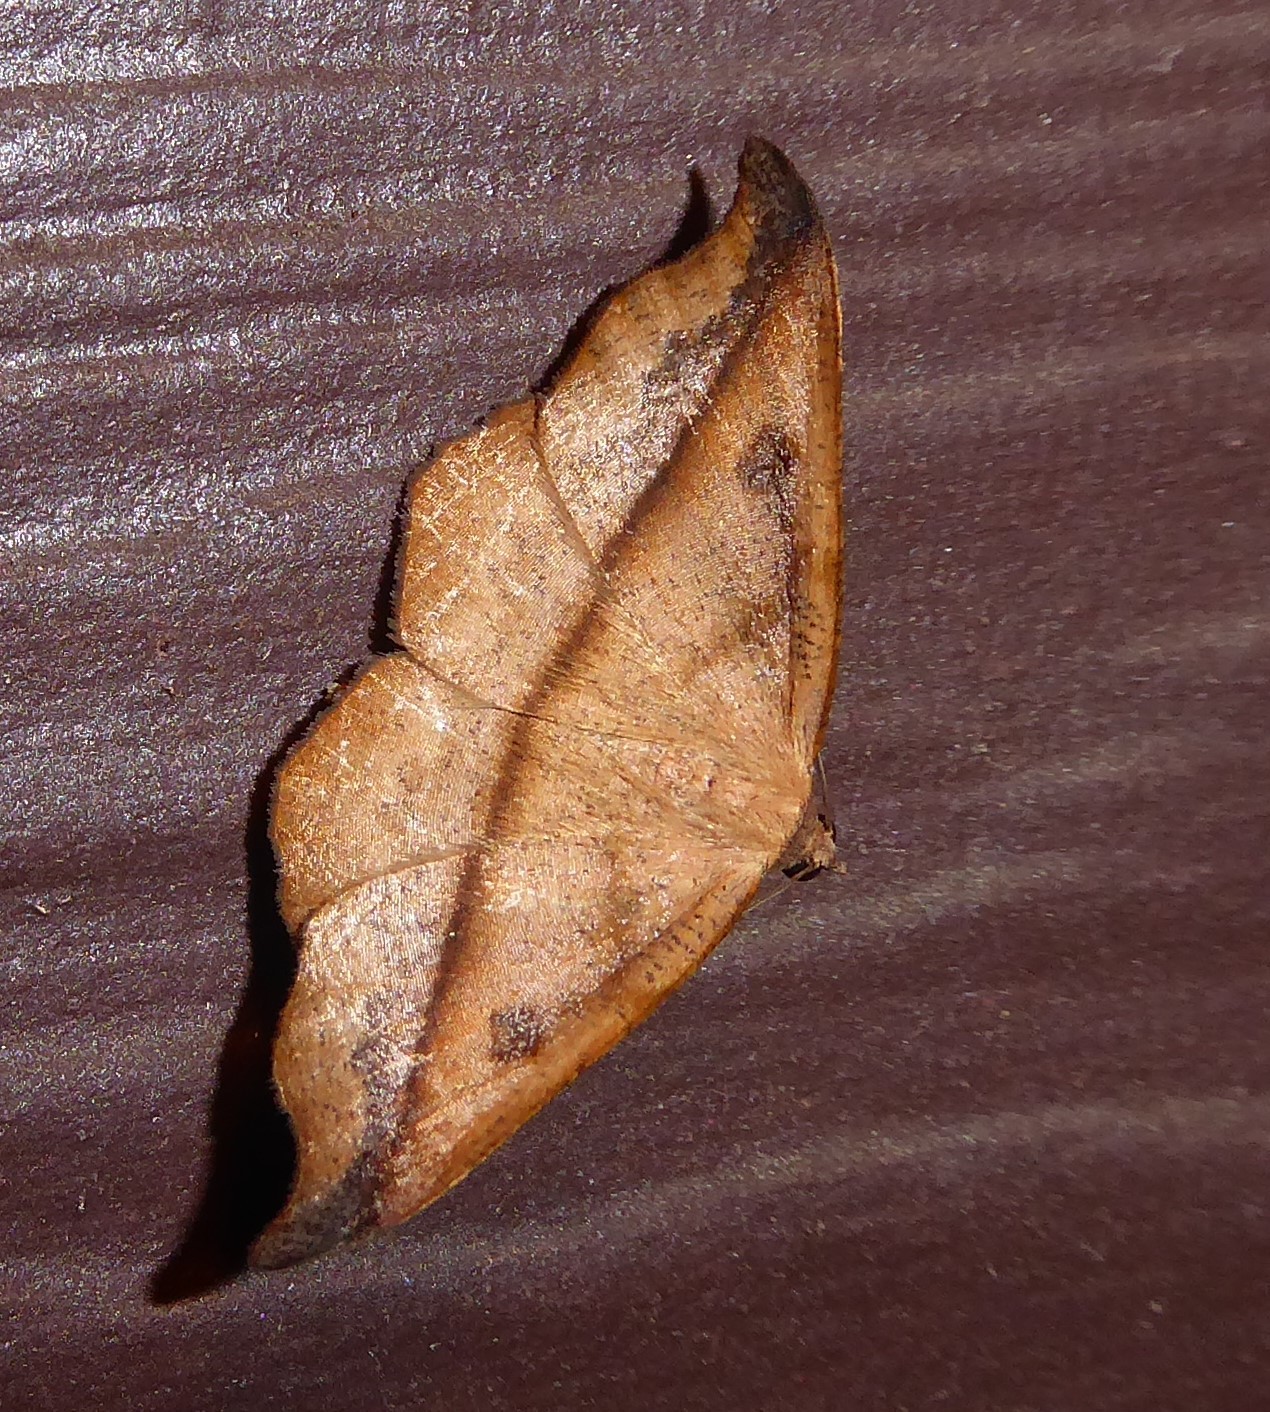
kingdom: Animalia
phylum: Arthropoda
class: Insecta
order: Lepidoptera
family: Geometridae
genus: Sarisa
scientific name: Sarisa muriferata
